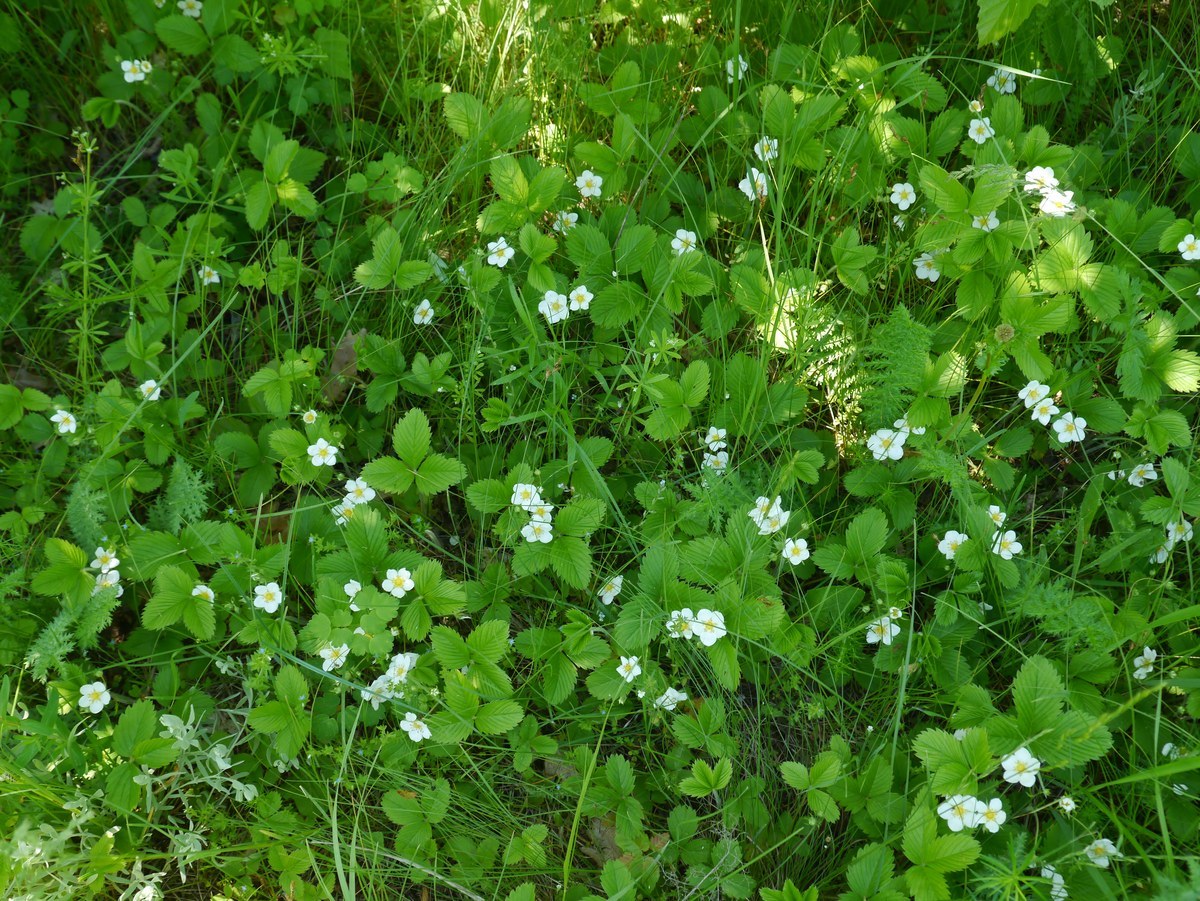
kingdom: Plantae
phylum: Tracheophyta
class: Magnoliopsida
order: Rosales
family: Rosaceae
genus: Fragaria
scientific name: Fragaria viridis
